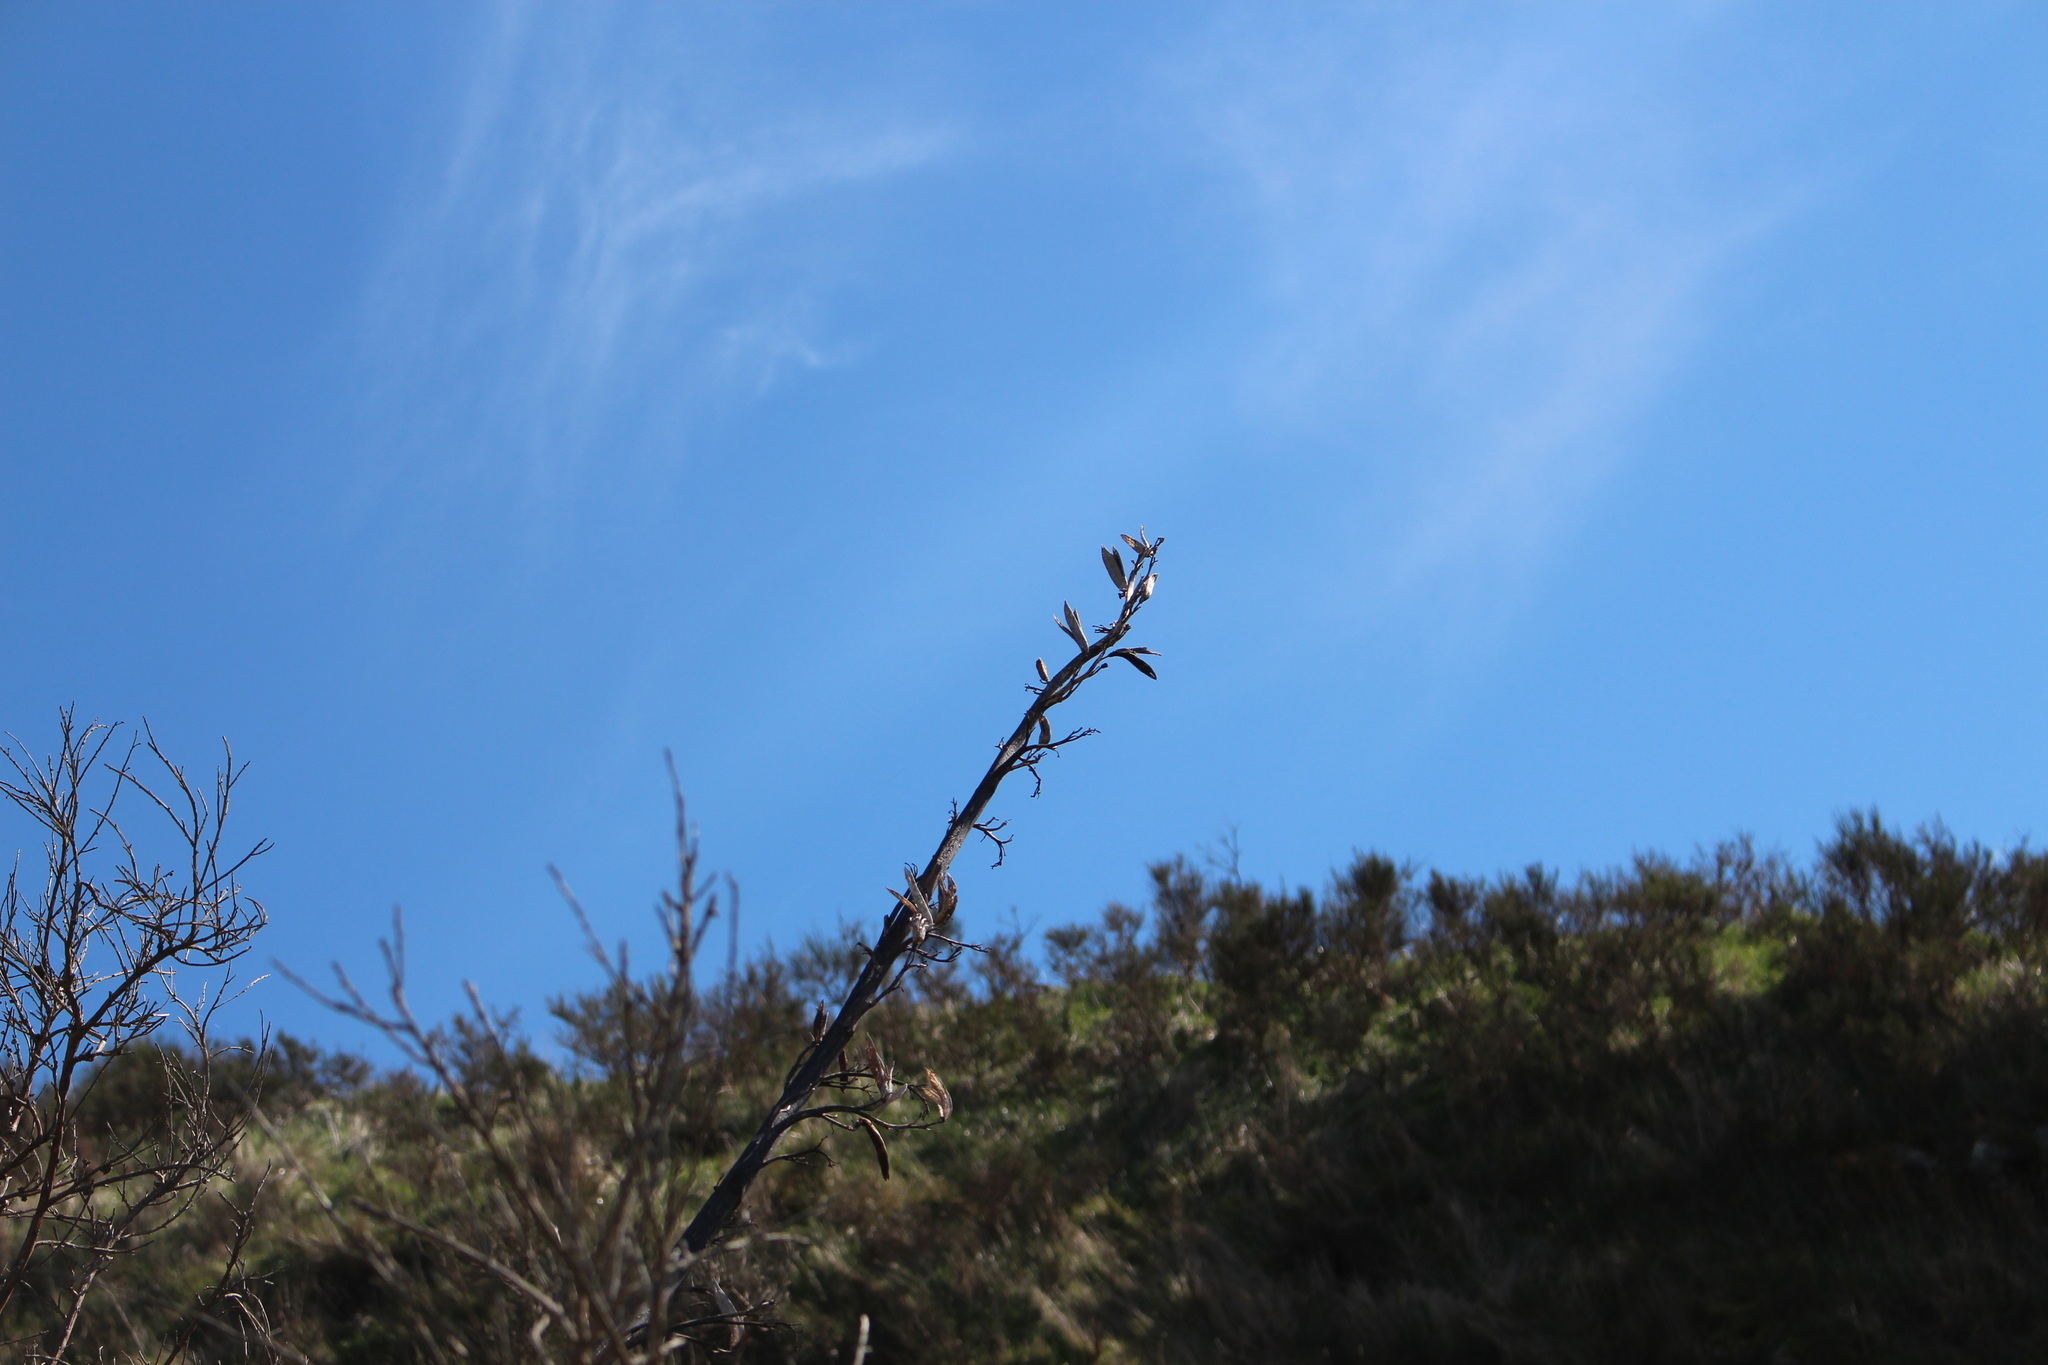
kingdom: Plantae
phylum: Tracheophyta
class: Liliopsida
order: Asparagales
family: Asphodelaceae
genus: Phormium
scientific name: Phormium tenax
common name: New zealand flax
